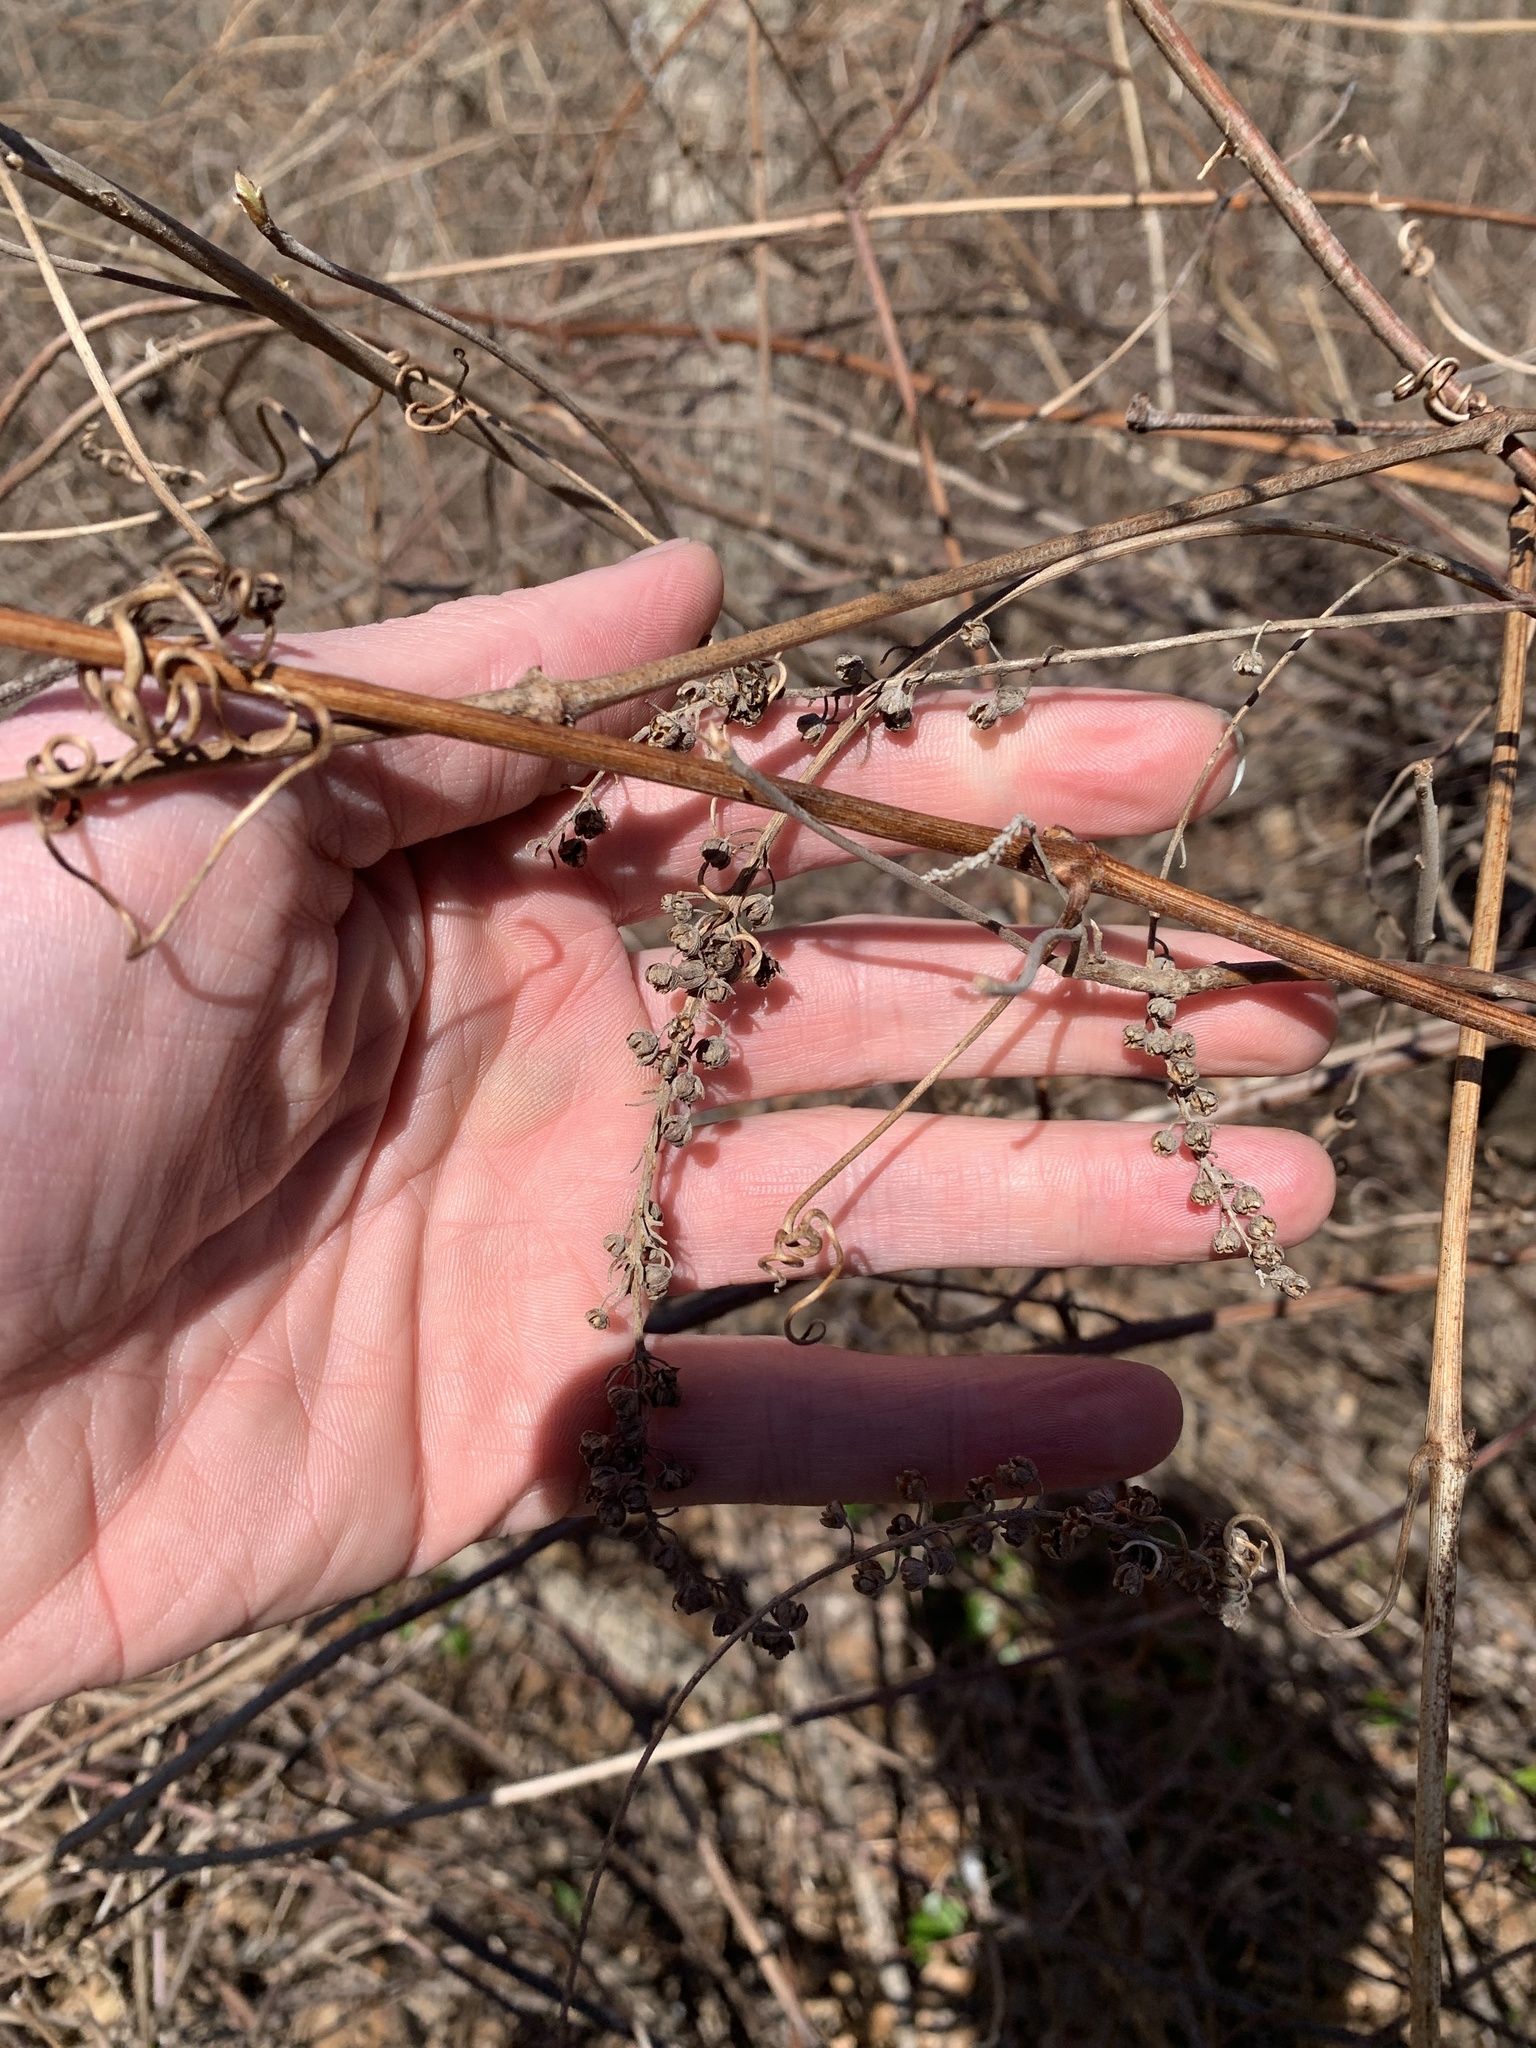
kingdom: Plantae
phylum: Tracheophyta
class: Magnoliopsida
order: Ericales
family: Clethraceae
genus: Clethra
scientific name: Clethra alnifolia
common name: Sweet pepperbush
